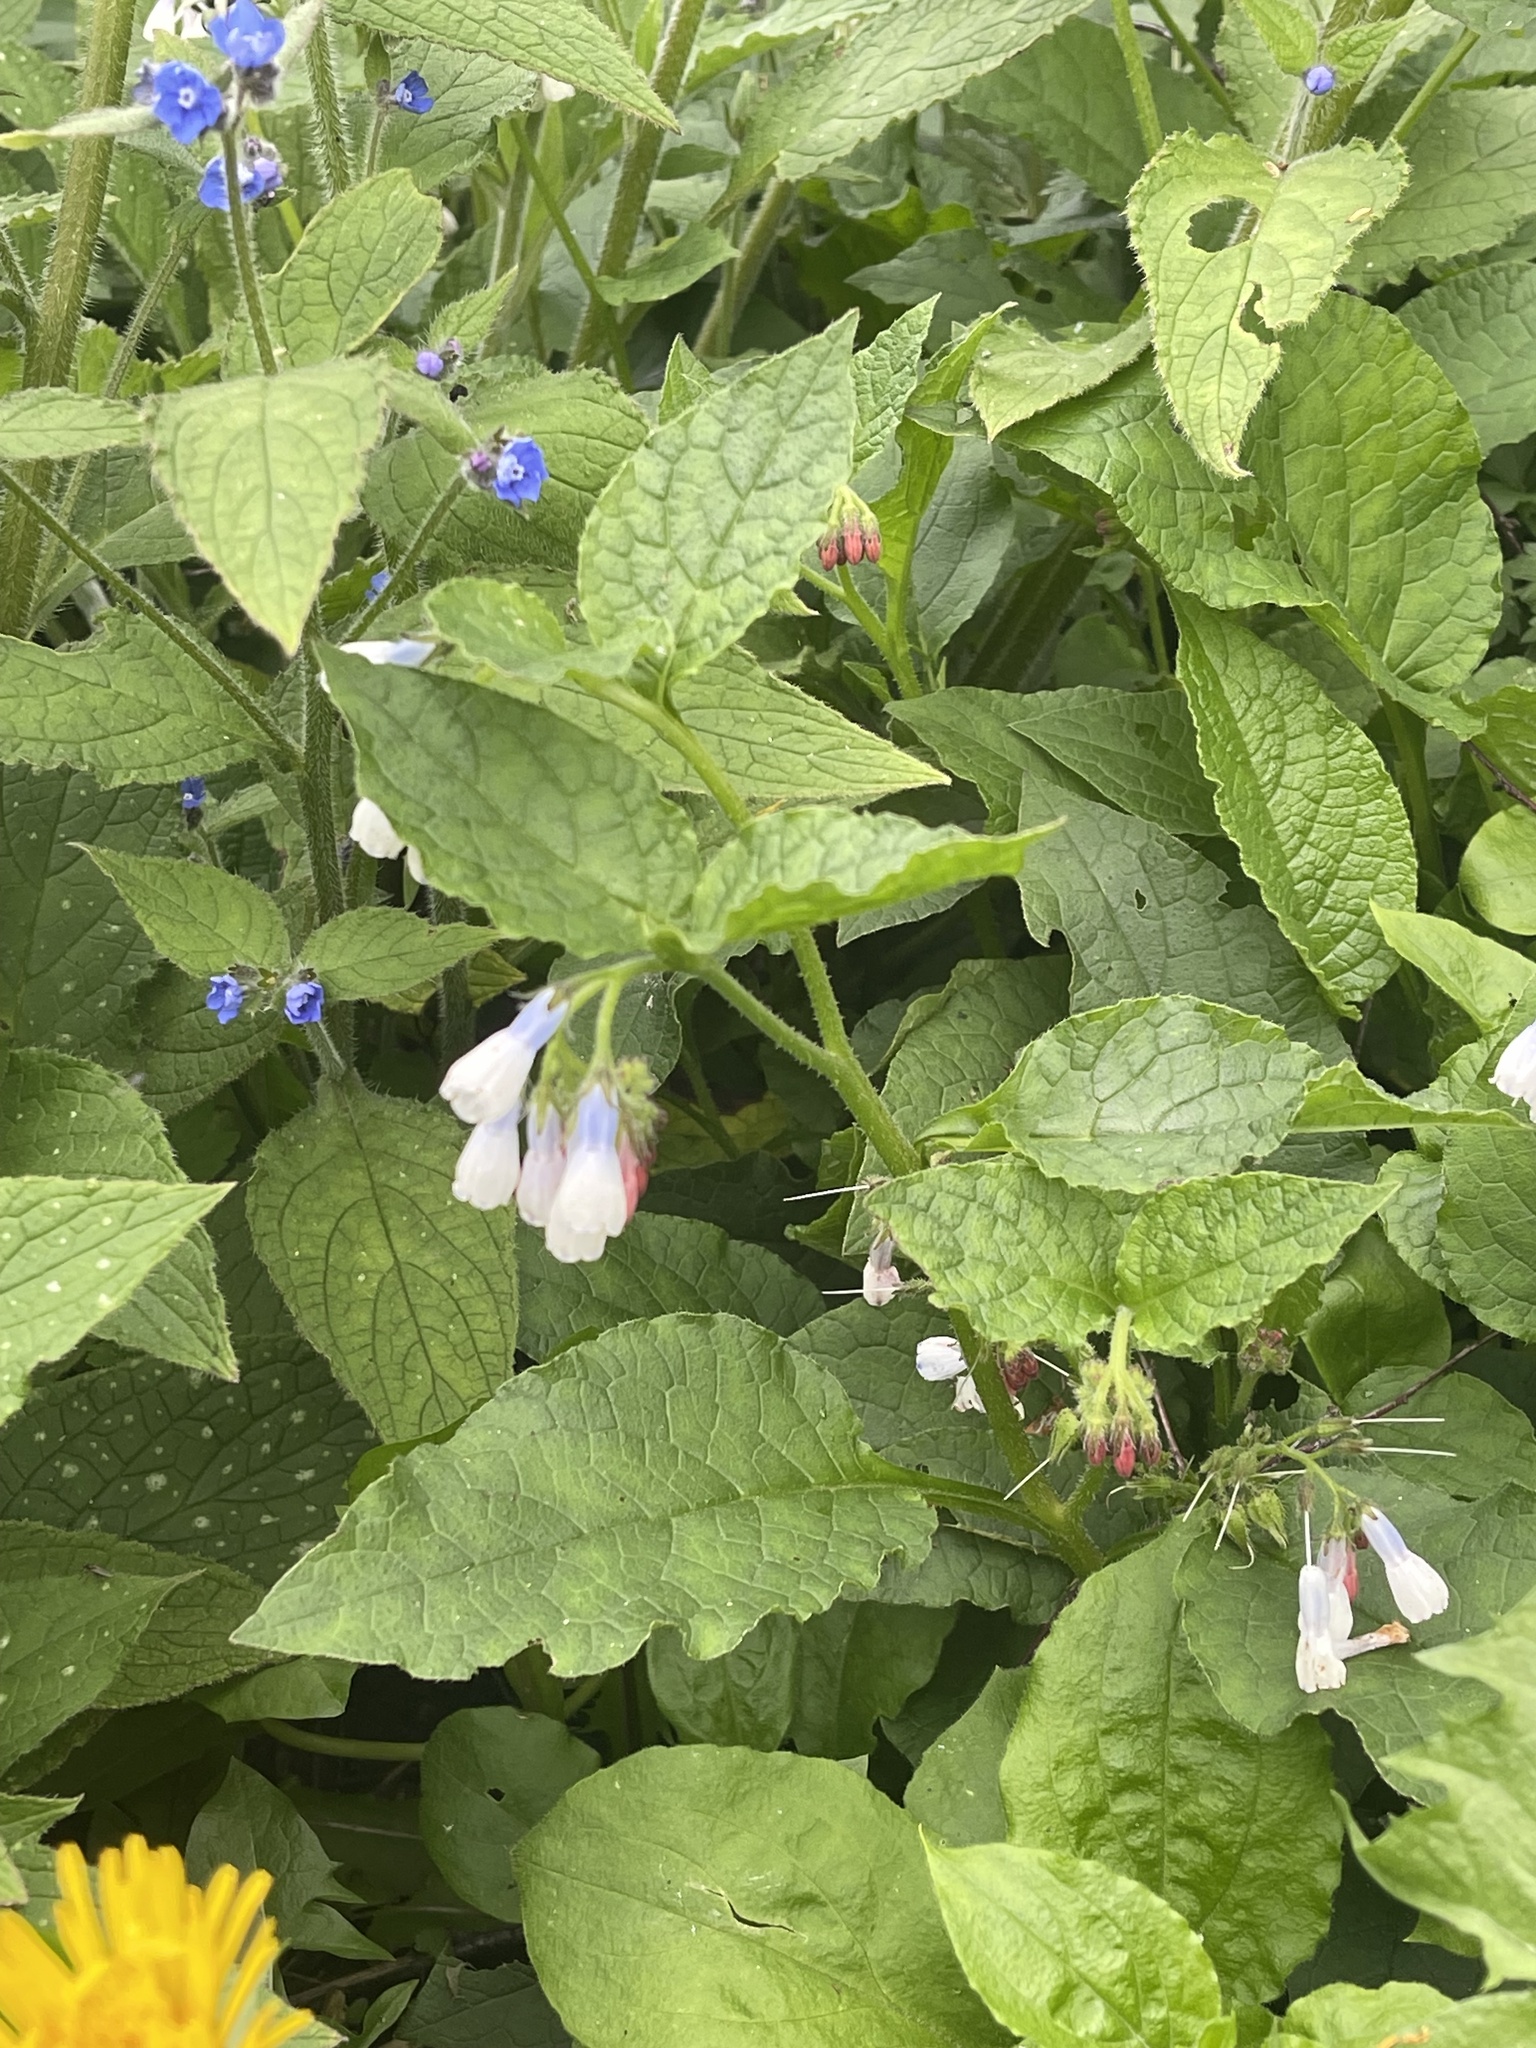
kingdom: Plantae
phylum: Tracheophyta
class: Magnoliopsida
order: Boraginales
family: Boraginaceae
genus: Symphytum
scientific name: Symphytum hidcotense
